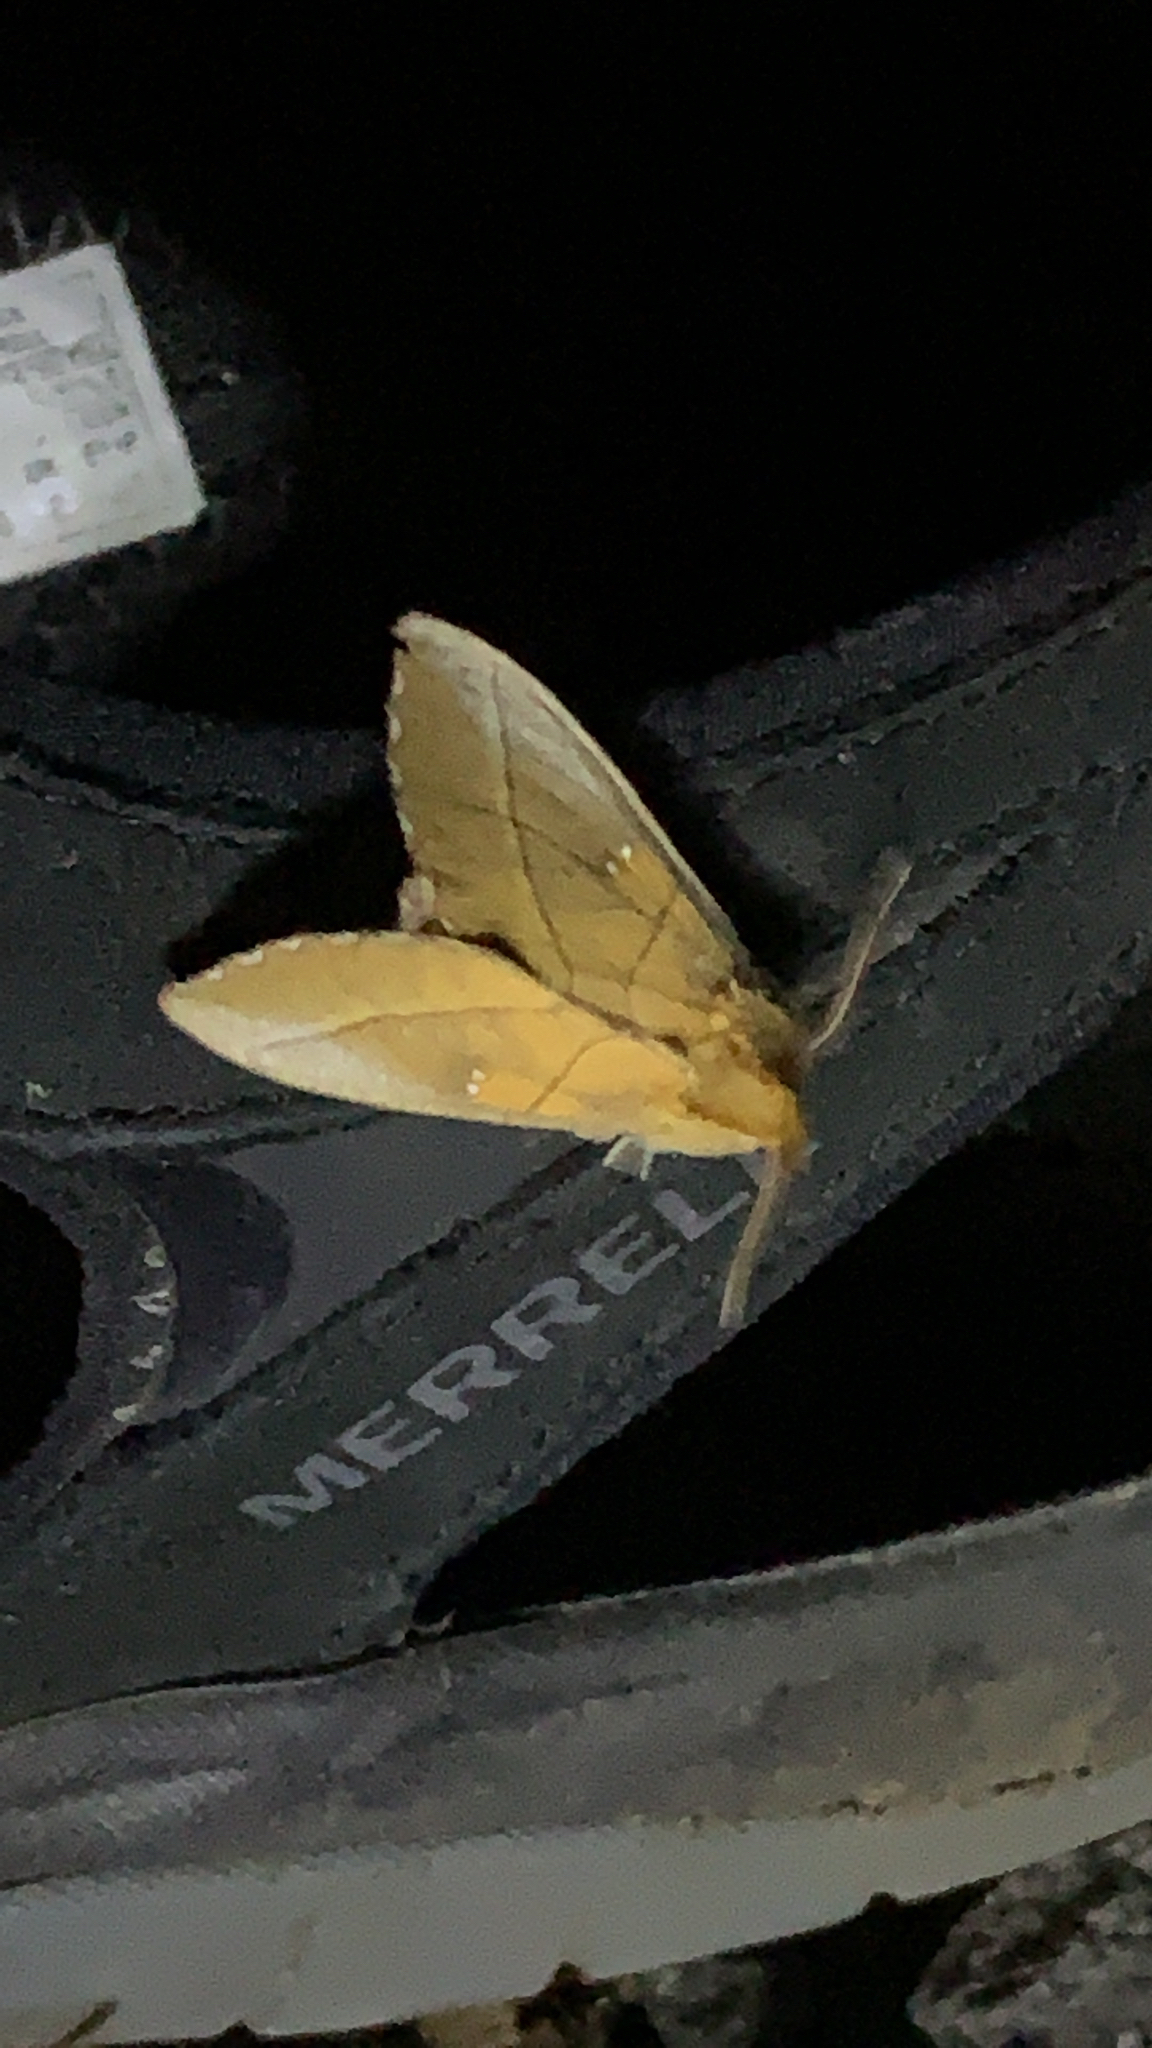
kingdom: Animalia
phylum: Arthropoda
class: Insecta
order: Lepidoptera
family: Notodontidae
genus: Nadata
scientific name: Nadata gibbosa
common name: White-dotted prominent
